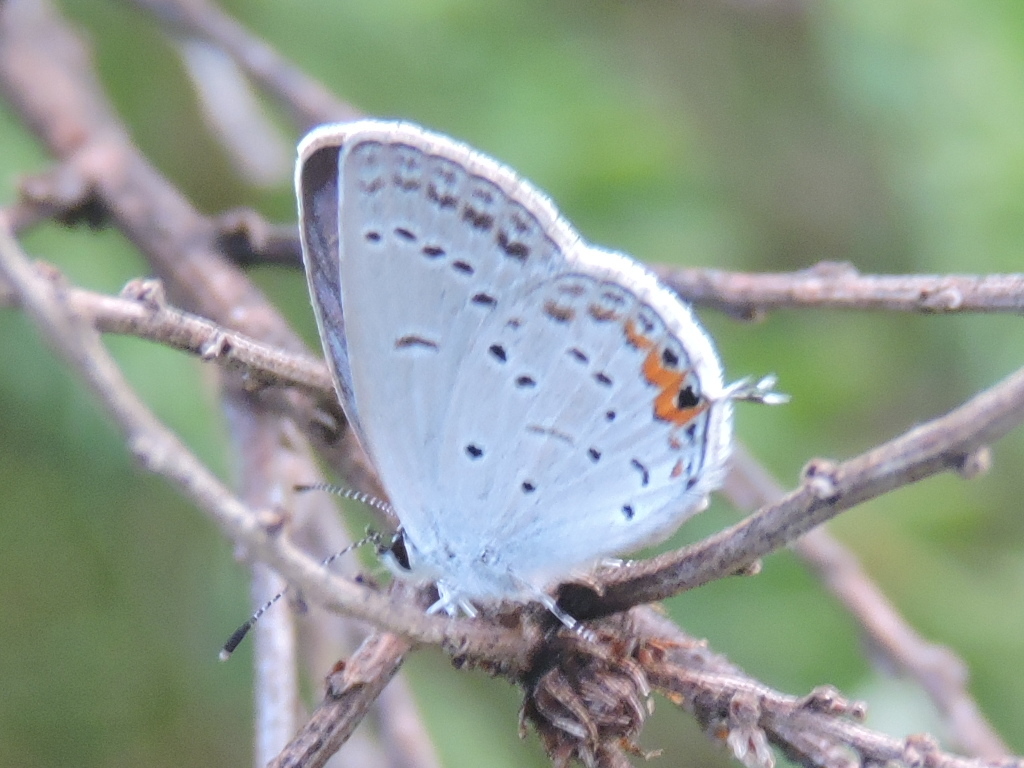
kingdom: Animalia
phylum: Arthropoda
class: Insecta
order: Lepidoptera
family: Lycaenidae
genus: Elkalyce
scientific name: Elkalyce comyntas
